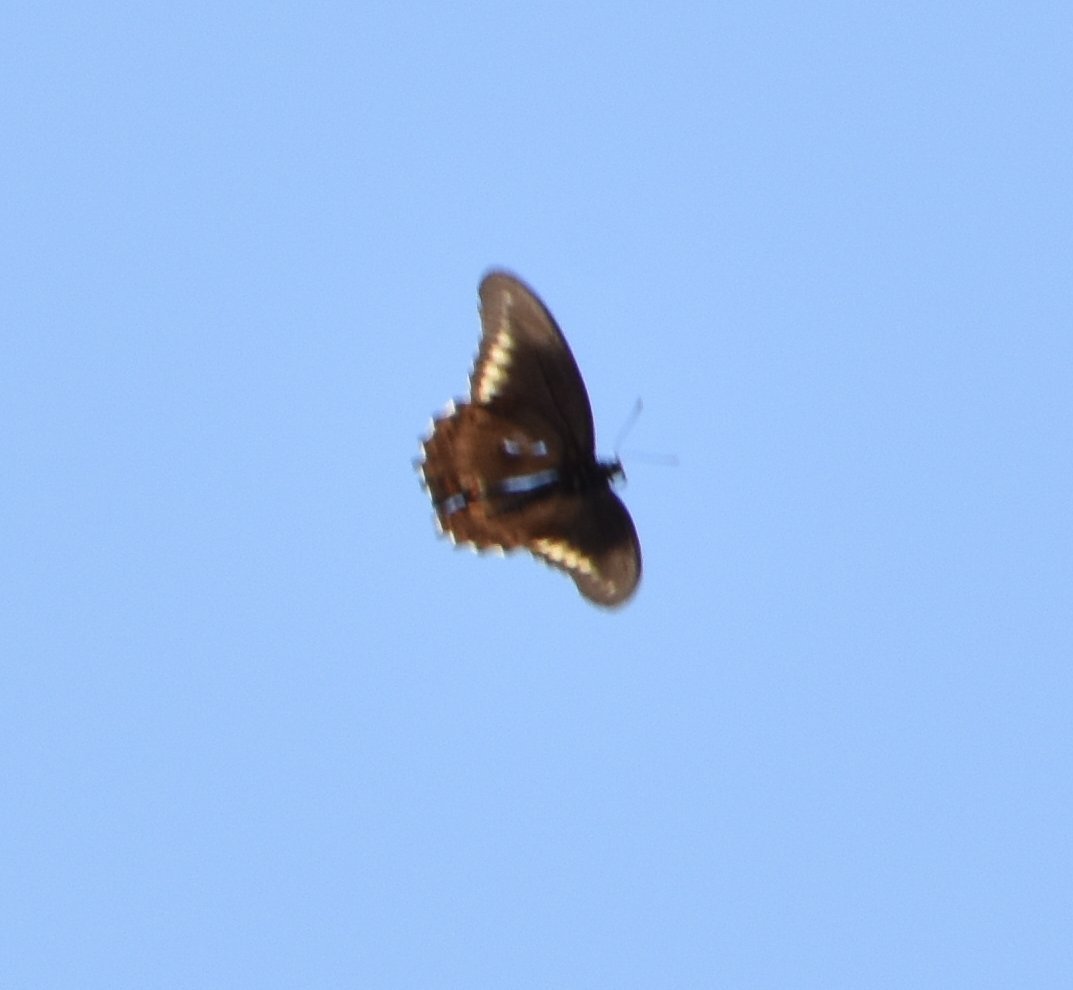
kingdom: Animalia
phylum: Arthropoda
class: Insecta
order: Lepidoptera
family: Papilionidae
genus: Battus
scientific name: Battus polydamas
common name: Polydamas swallowtail
